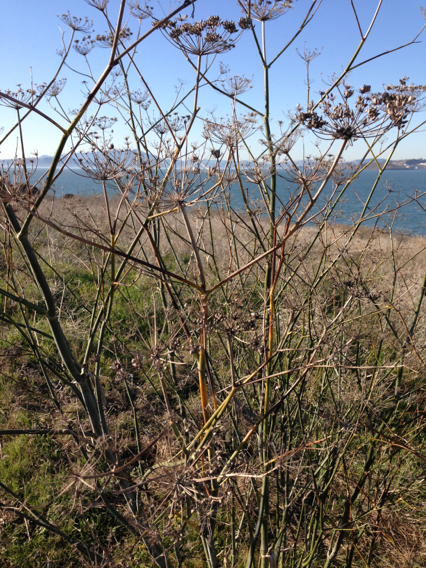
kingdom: Plantae
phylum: Tracheophyta
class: Magnoliopsida
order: Apiales
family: Apiaceae
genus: Foeniculum
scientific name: Foeniculum vulgare
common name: Fennel
